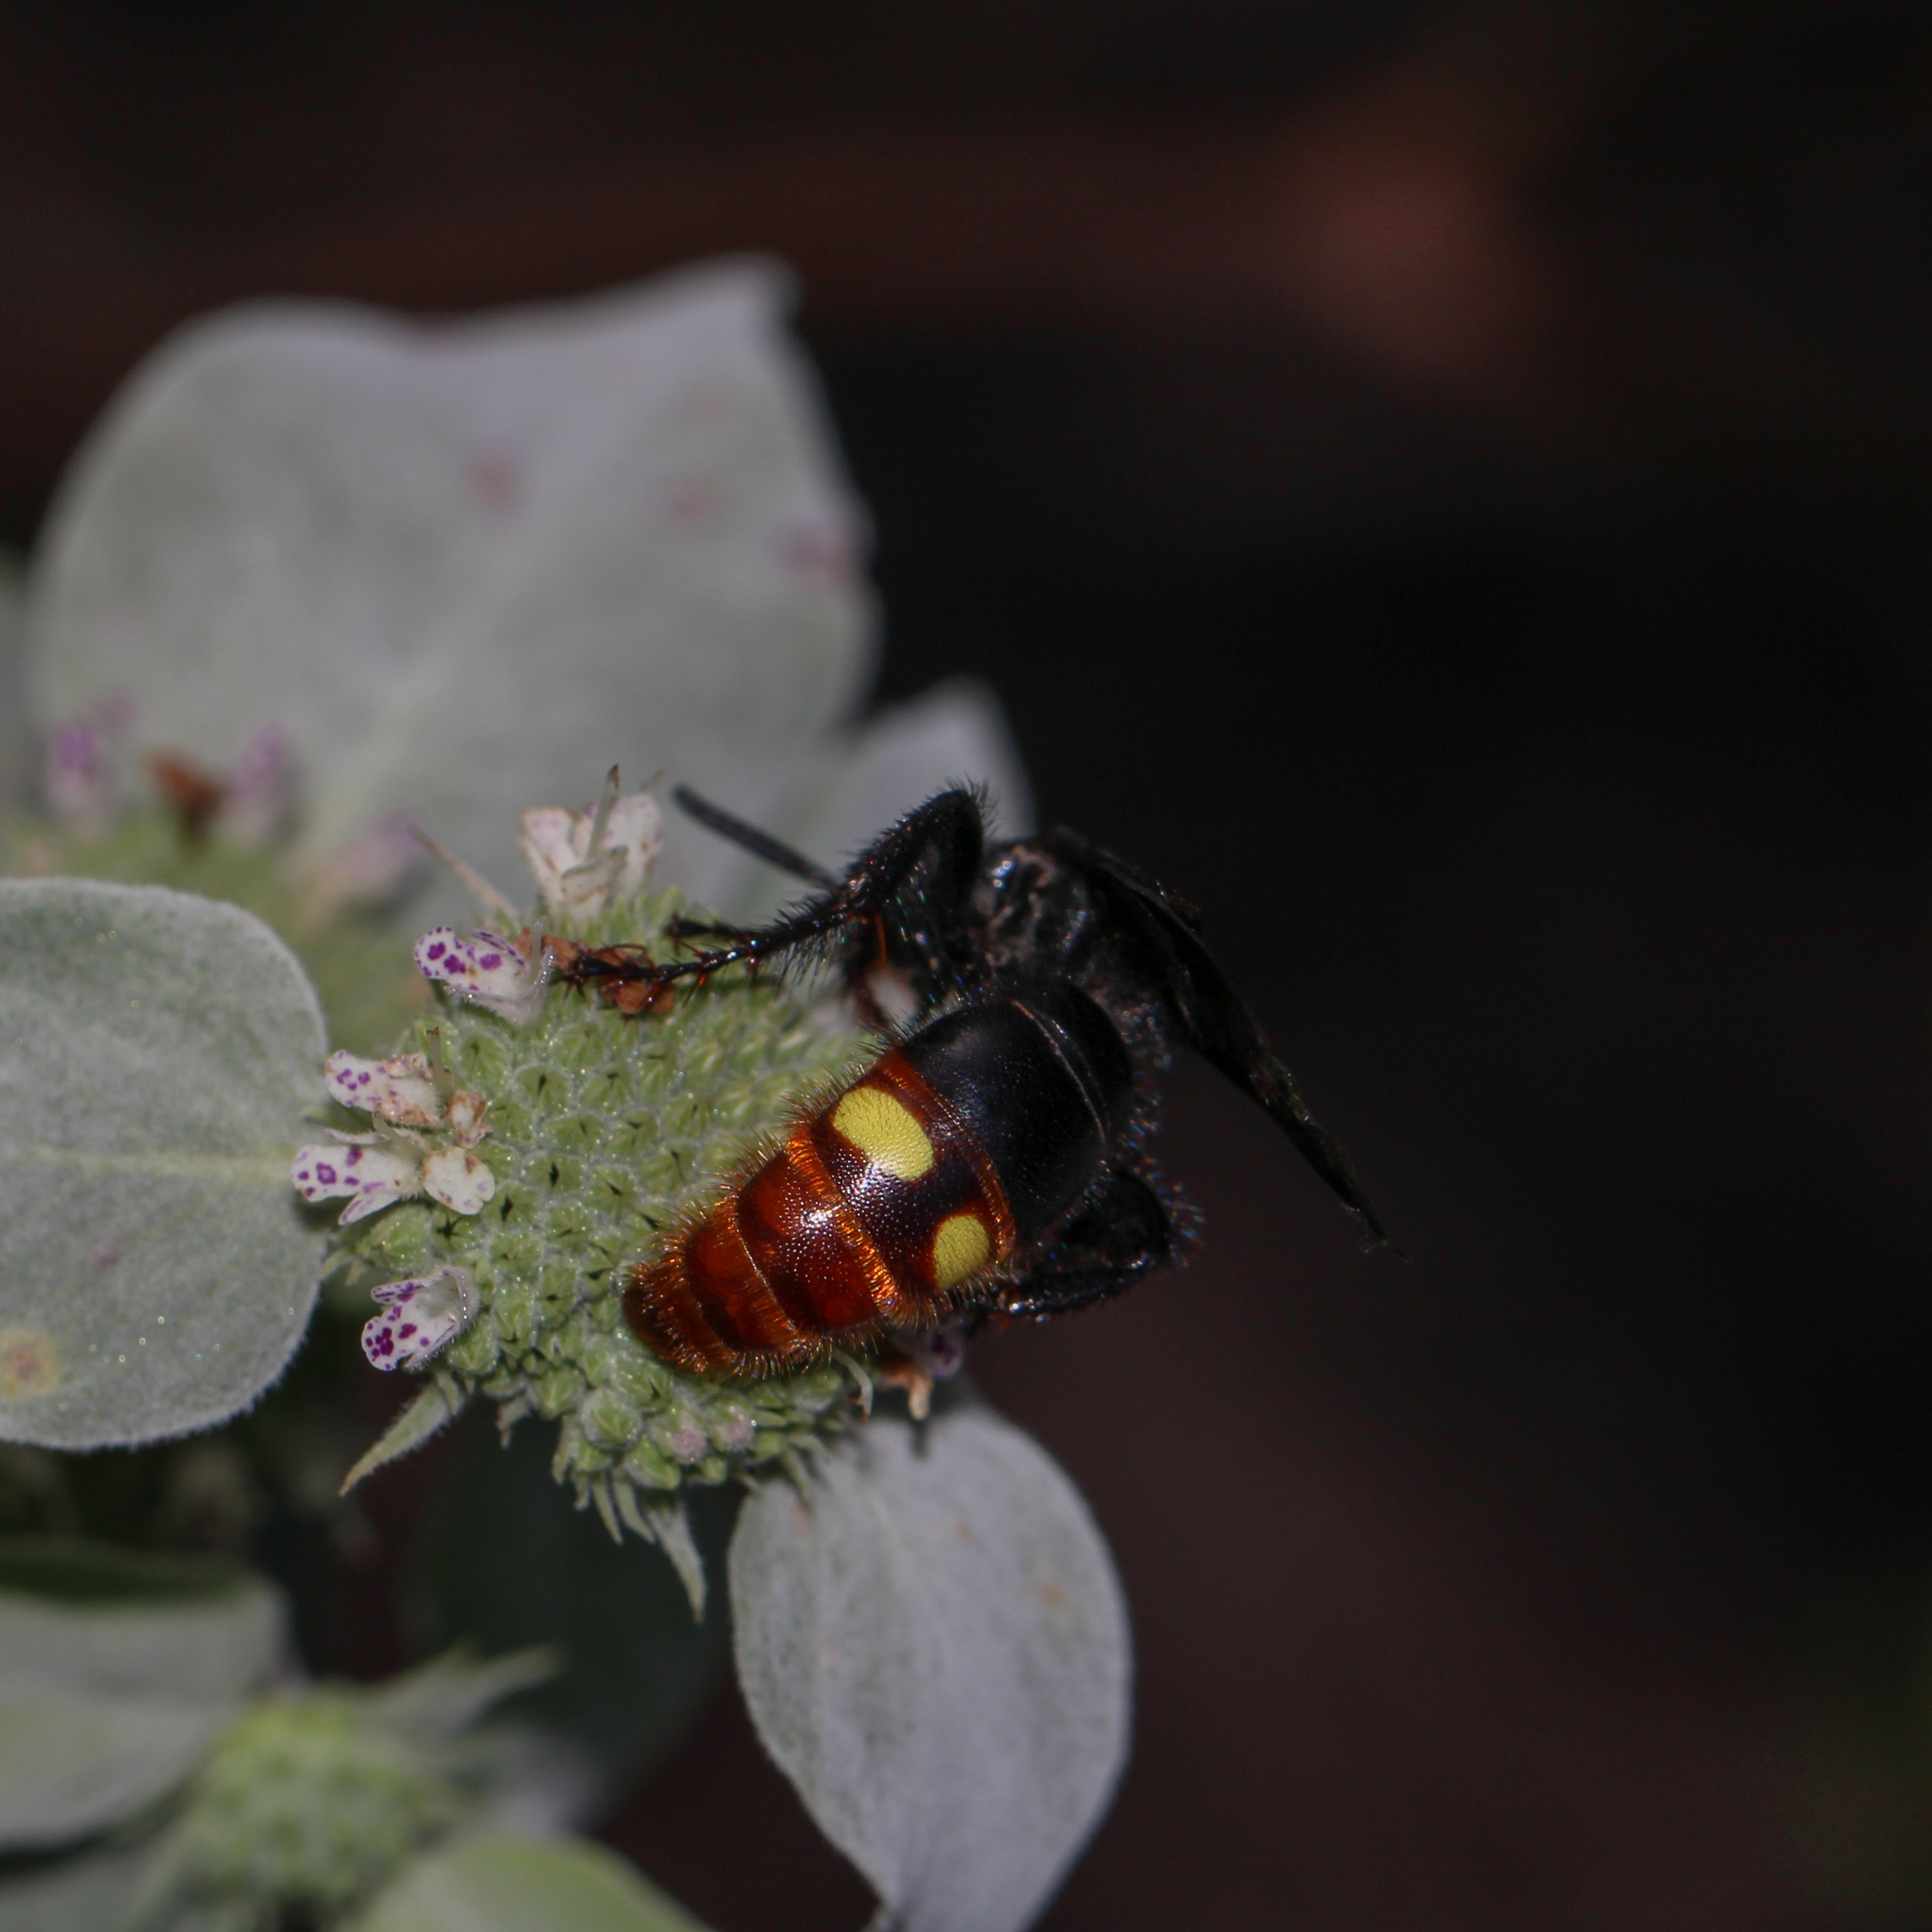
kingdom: Animalia
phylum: Arthropoda
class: Insecta
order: Hymenoptera
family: Scoliidae
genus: Scolia
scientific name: Scolia dubia
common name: Blue-winged scoliid wasp
